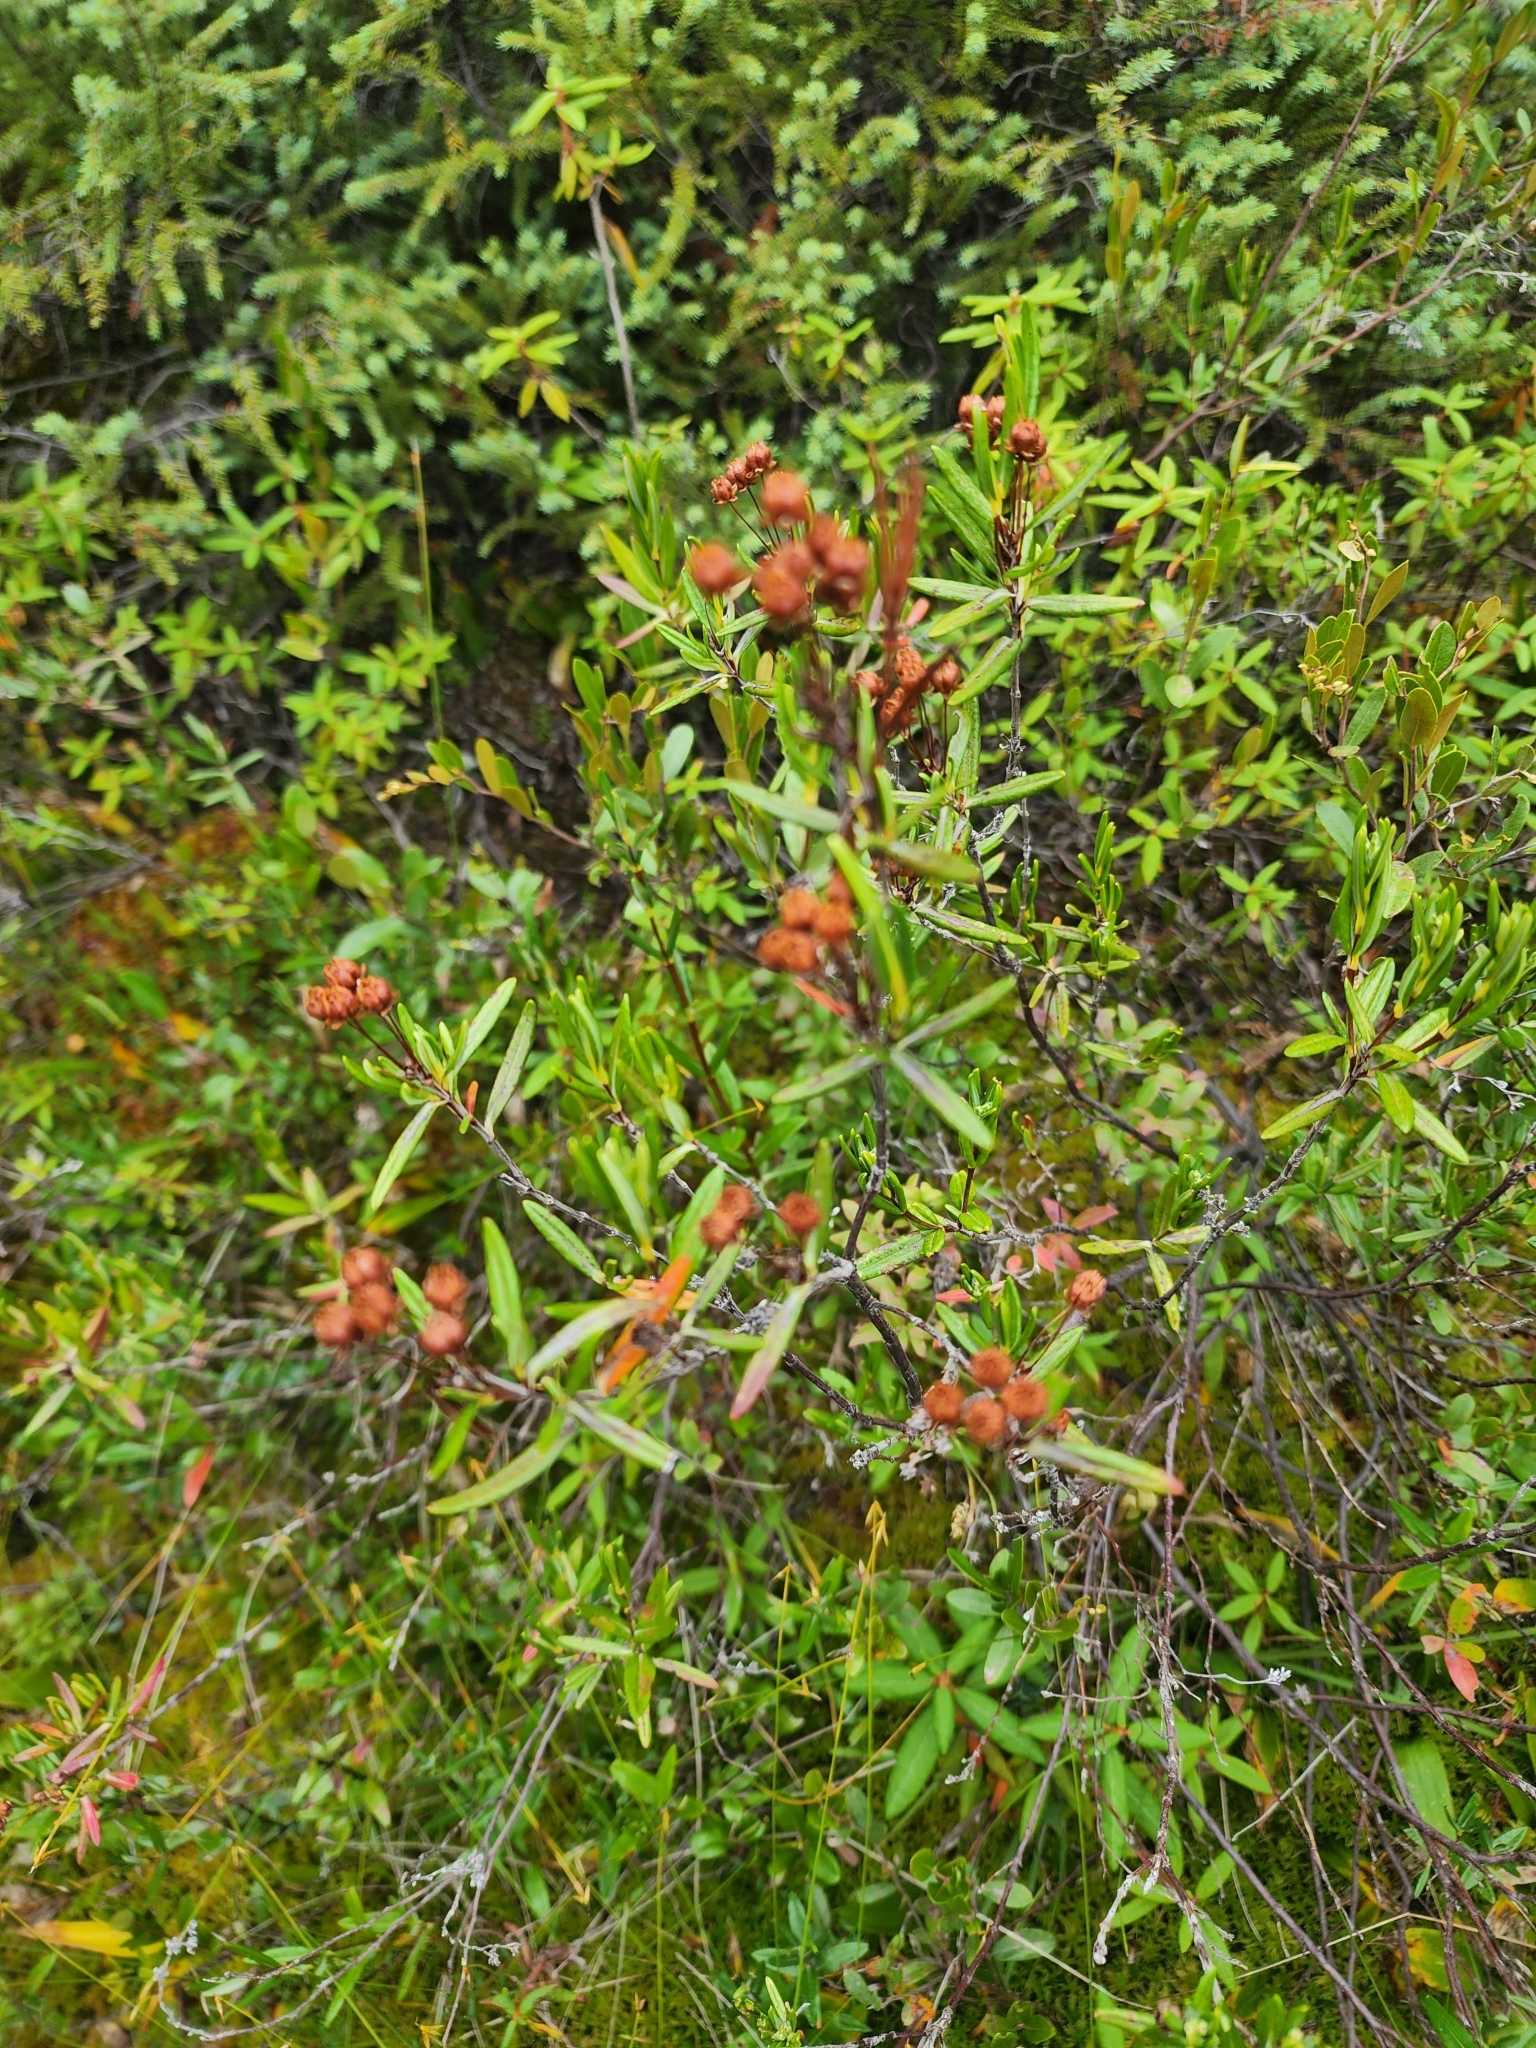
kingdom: Plantae
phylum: Tracheophyta
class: Magnoliopsida
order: Ericales
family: Ericaceae
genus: Kalmia
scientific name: Kalmia polifolia
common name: Bog-laurel
